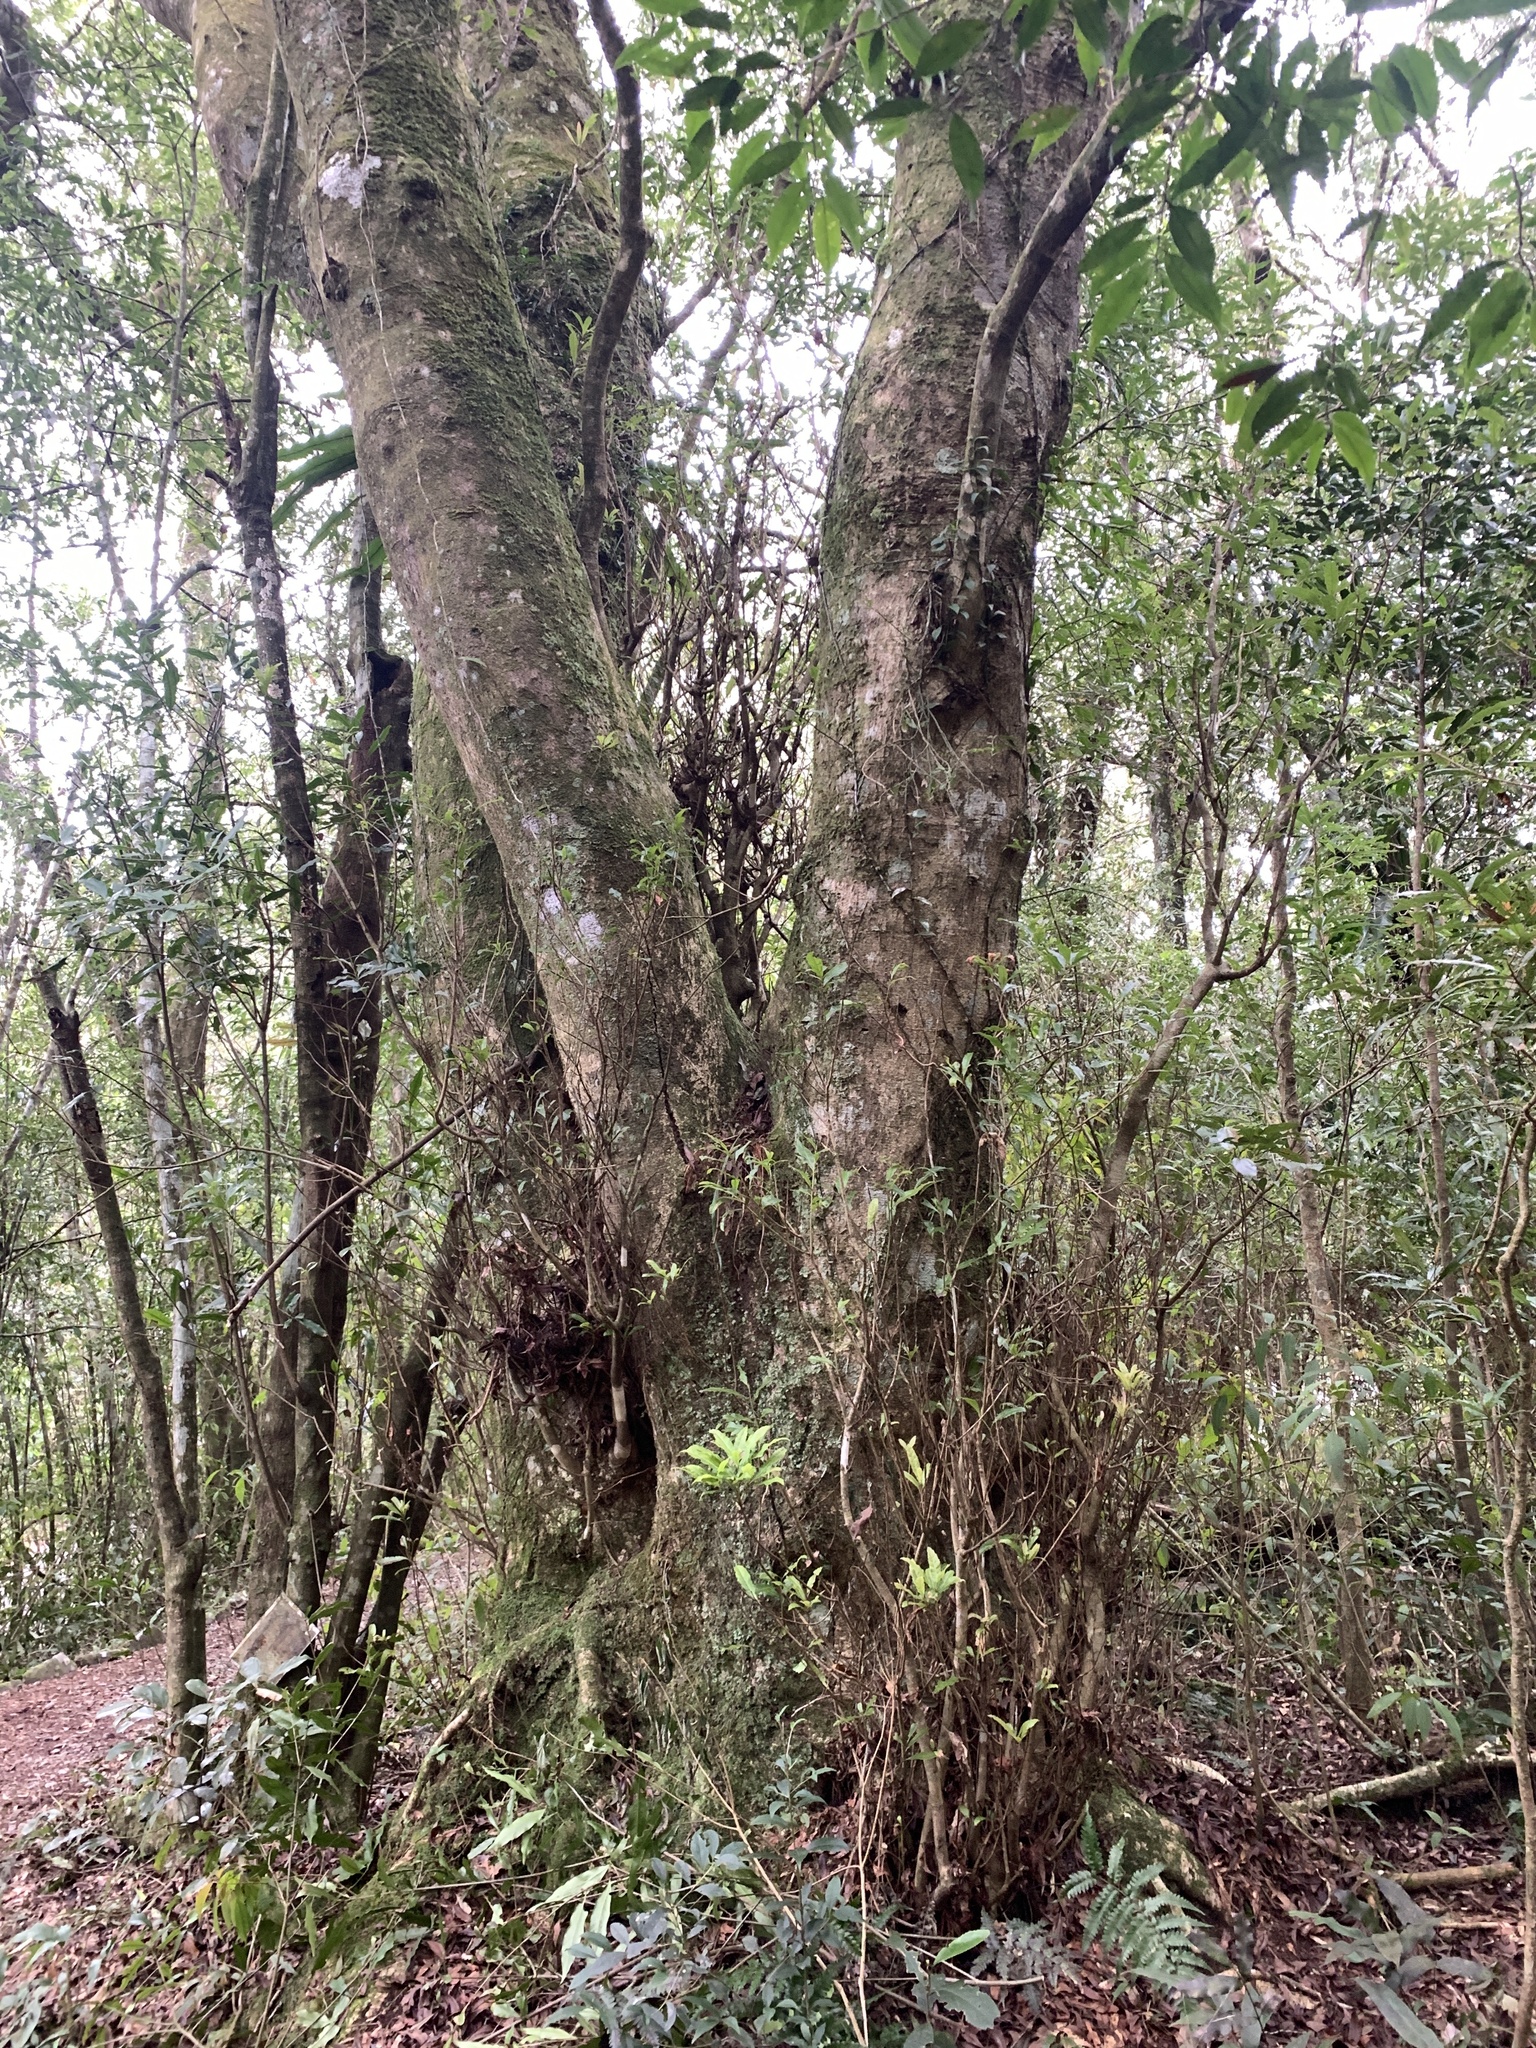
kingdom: Plantae
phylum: Tracheophyta
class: Magnoliopsida
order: Fagales
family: Myricaceae
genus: Morella
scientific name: Morella rubra
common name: Red bayberry
